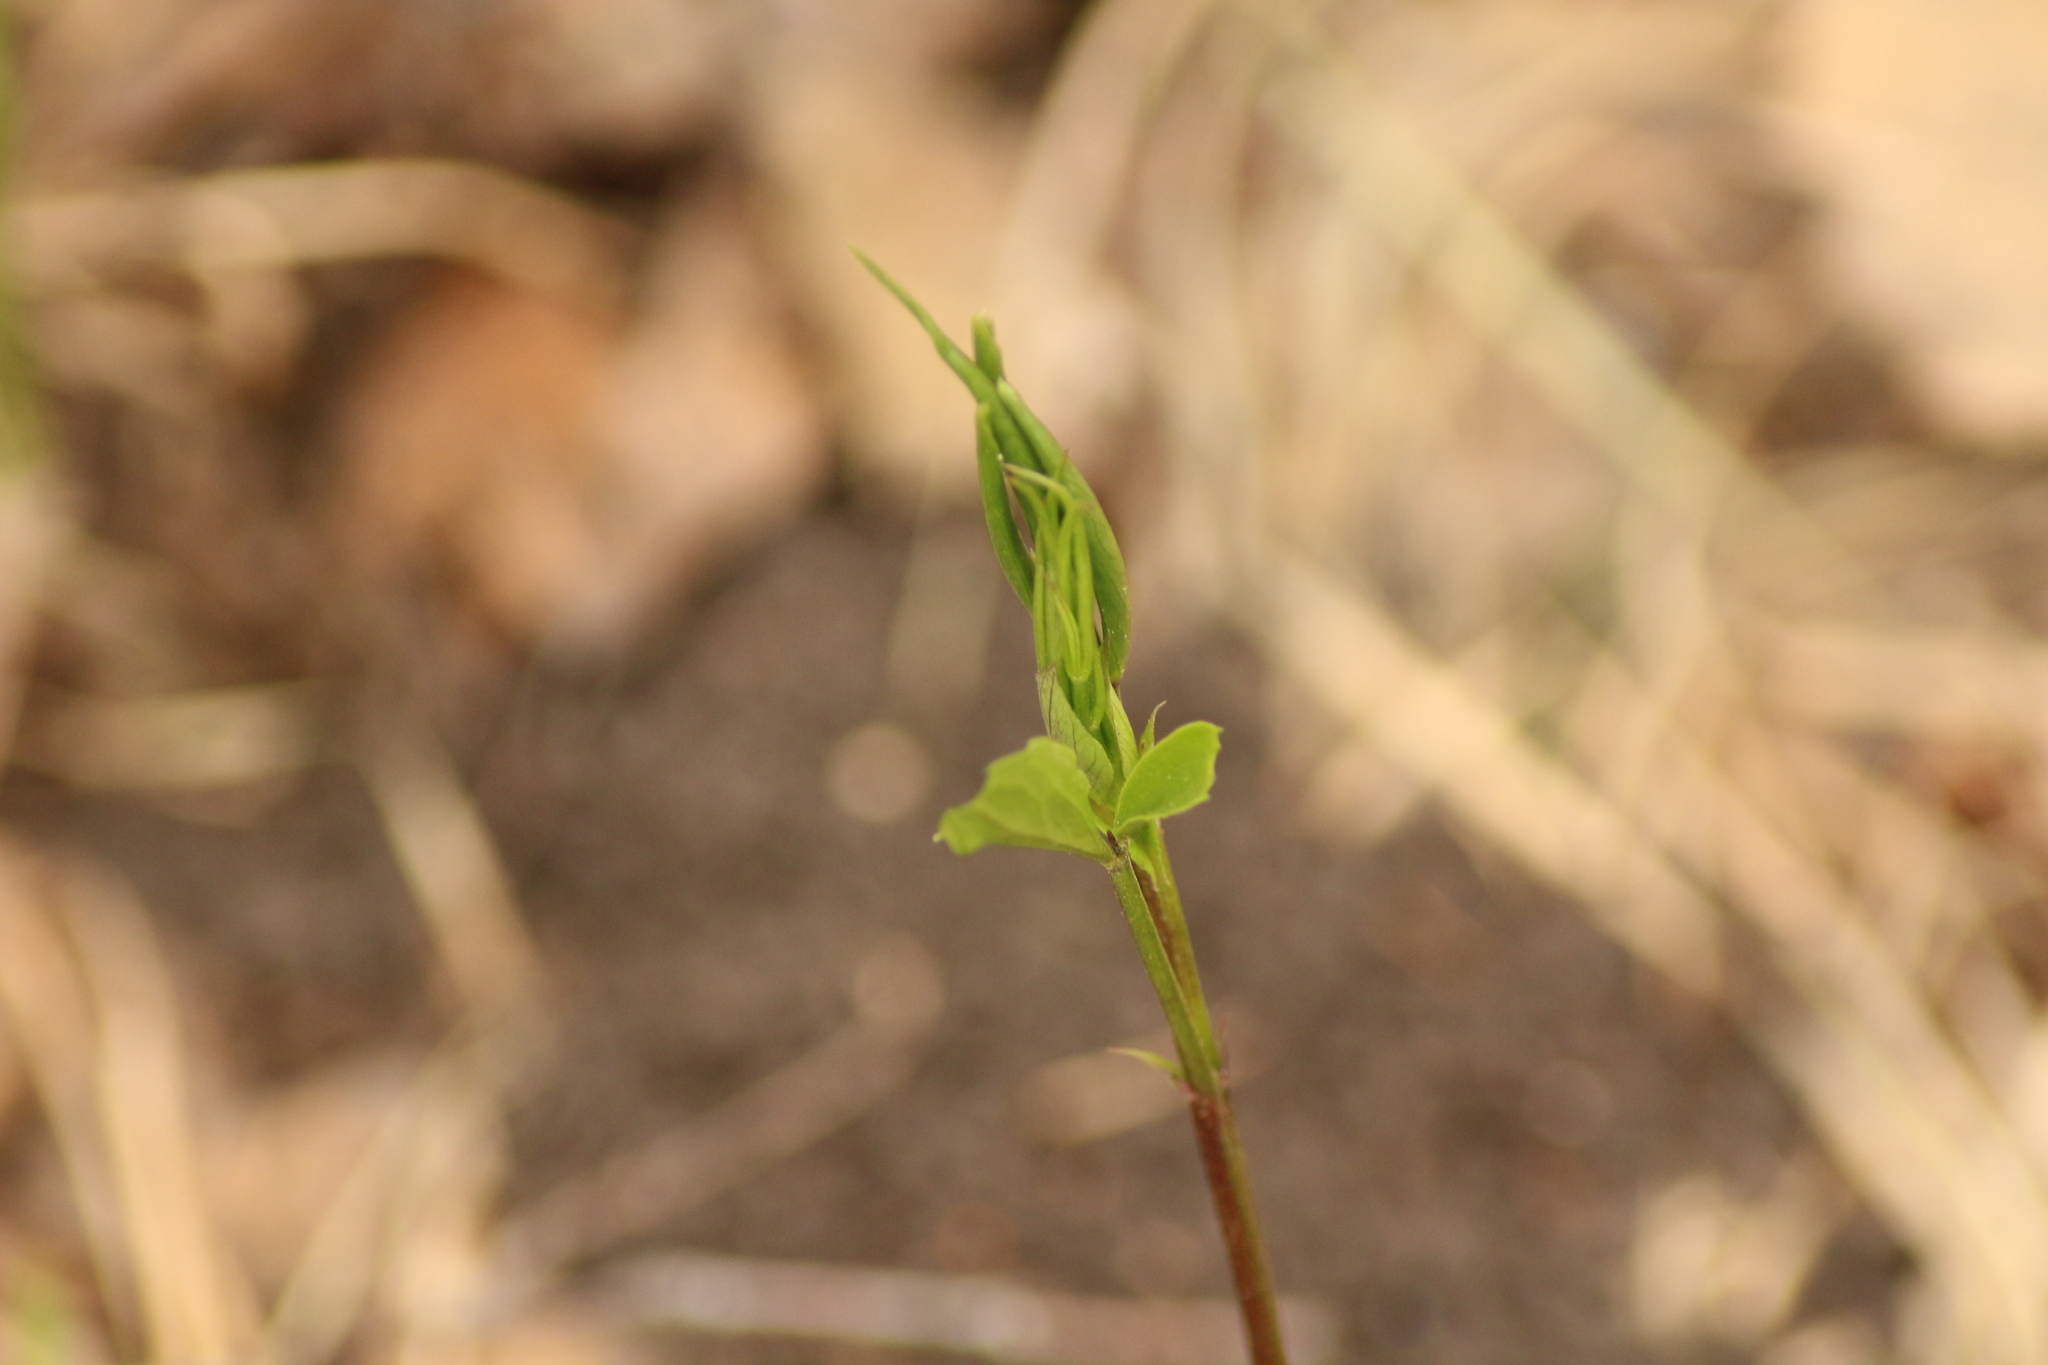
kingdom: Plantae
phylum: Tracheophyta
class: Magnoliopsida
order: Fabales
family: Fabaceae
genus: Lathyrus
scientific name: Lathyrus vernus
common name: Spring pea
